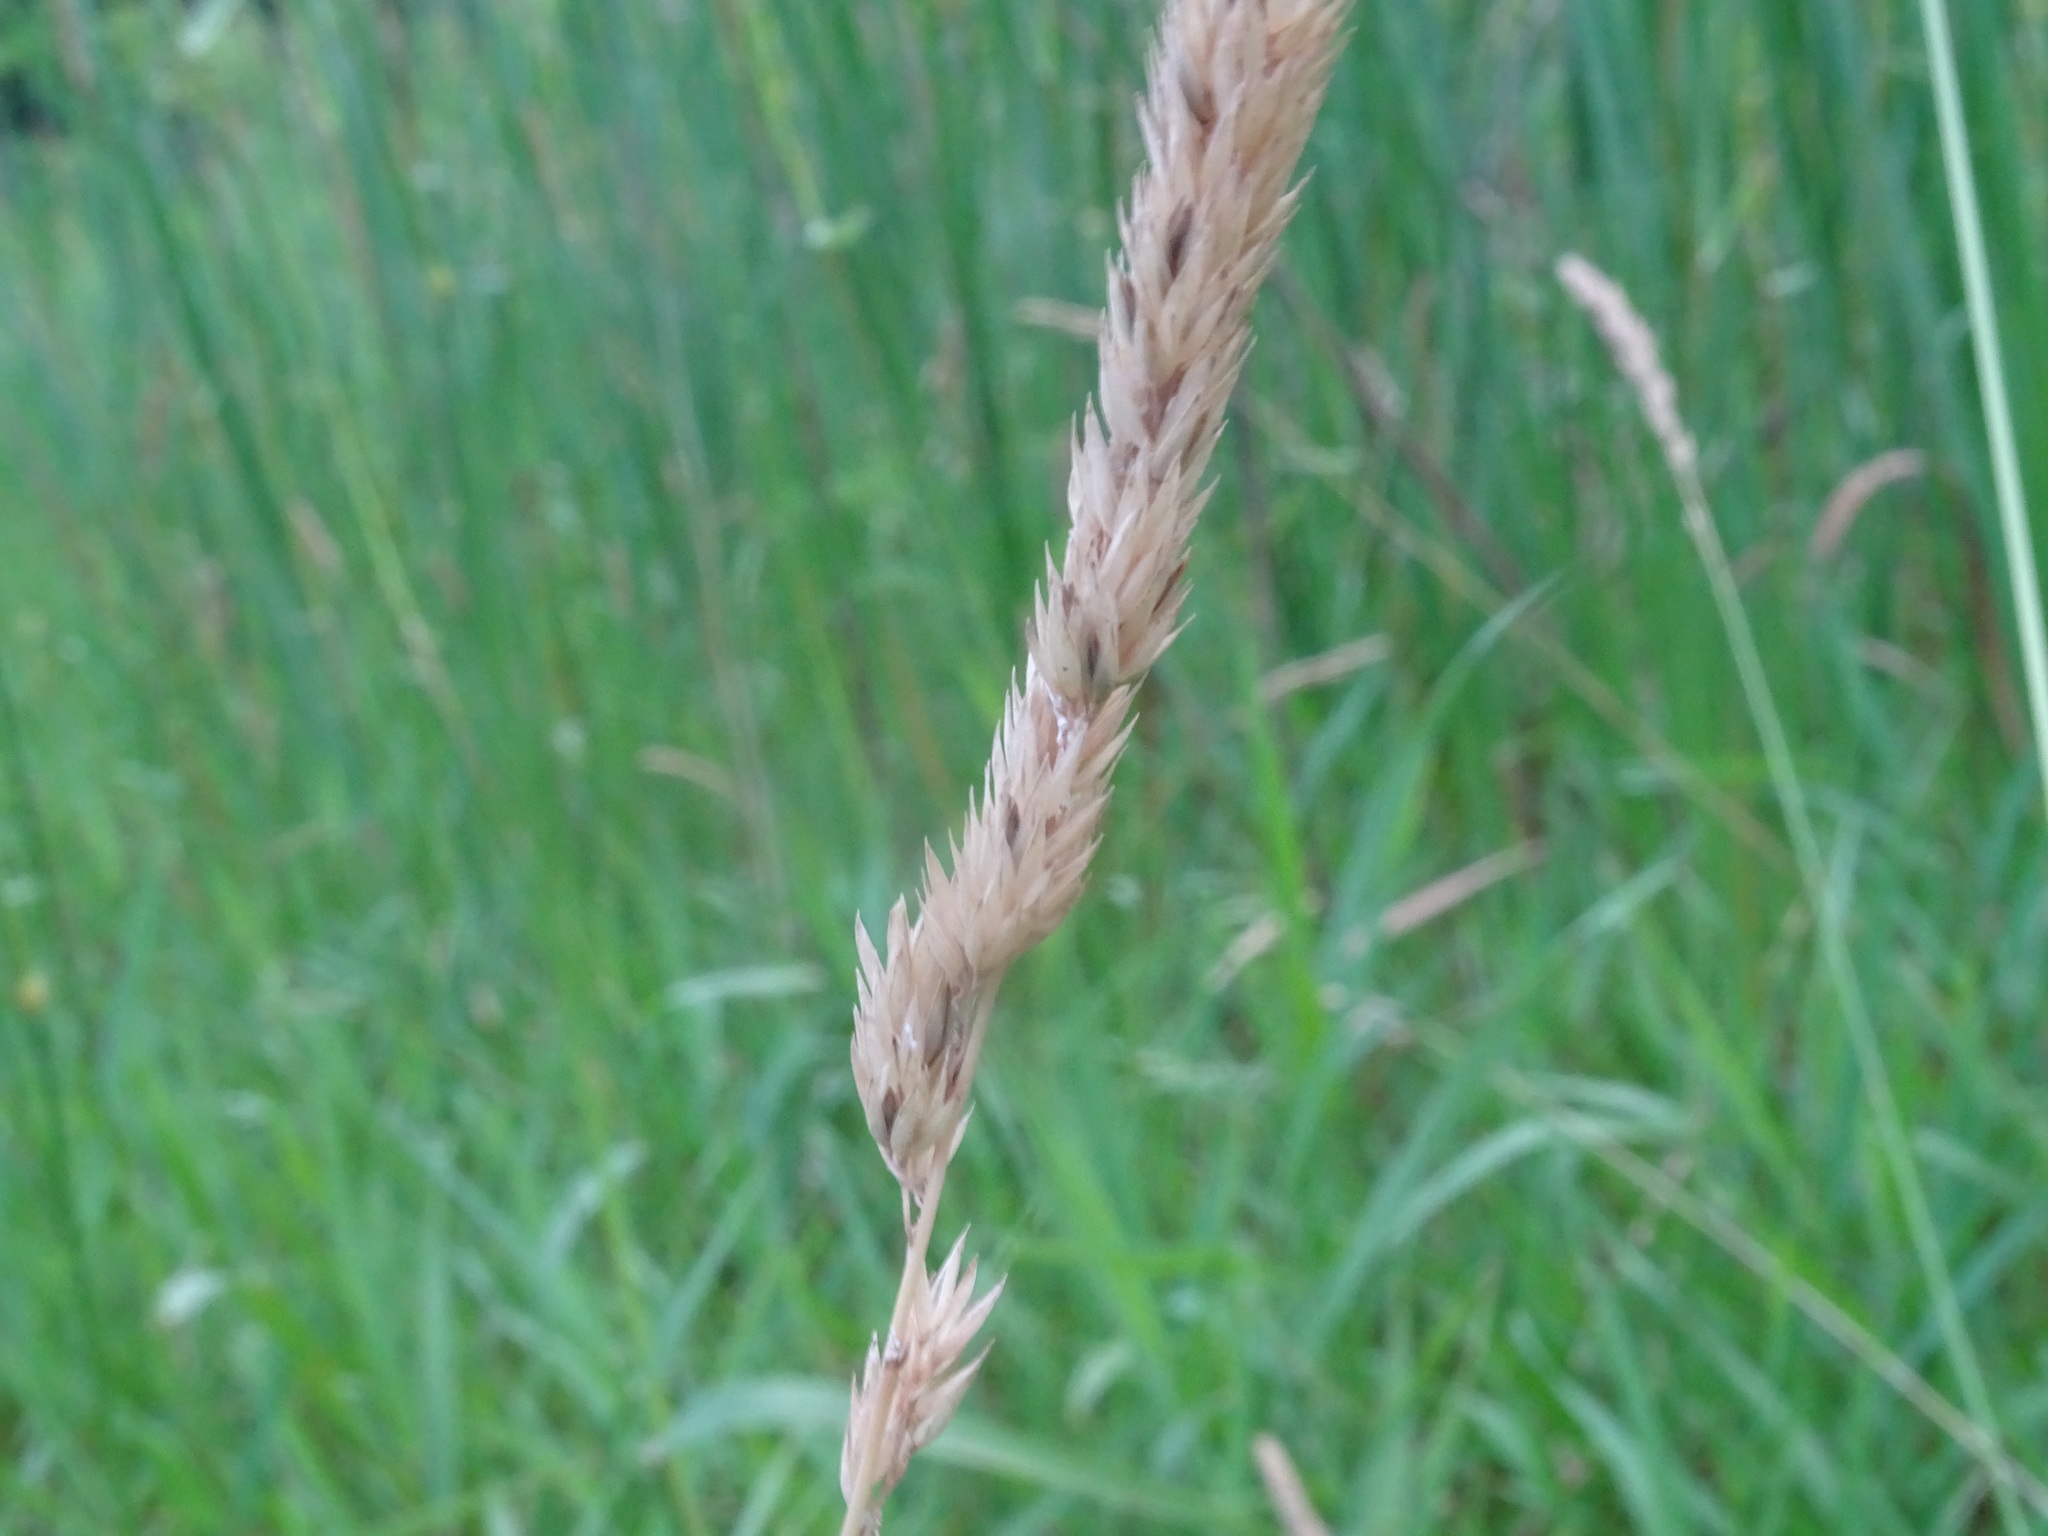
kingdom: Plantae
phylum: Tracheophyta
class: Liliopsida
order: Poales
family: Poaceae
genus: Phalaris
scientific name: Phalaris arundinacea
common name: Reed canary-grass
